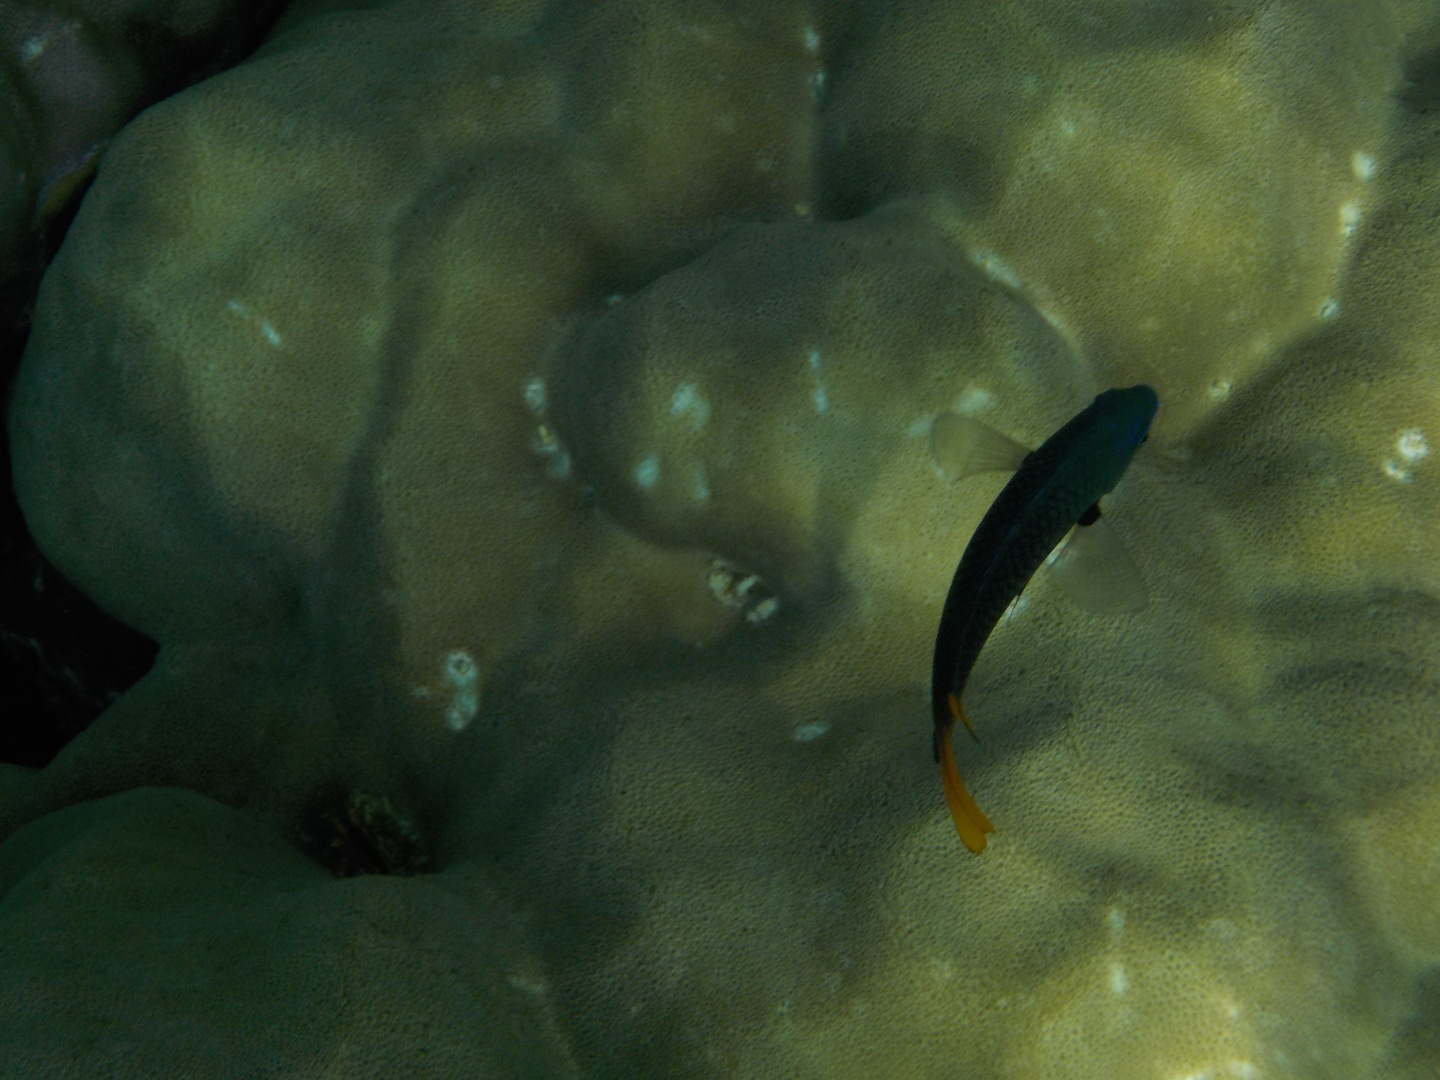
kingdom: Animalia
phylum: Chordata
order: Perciformes
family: Pomacentridae
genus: Pomacentrus
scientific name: Pomacentrus philippinus
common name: Philippine damsel
